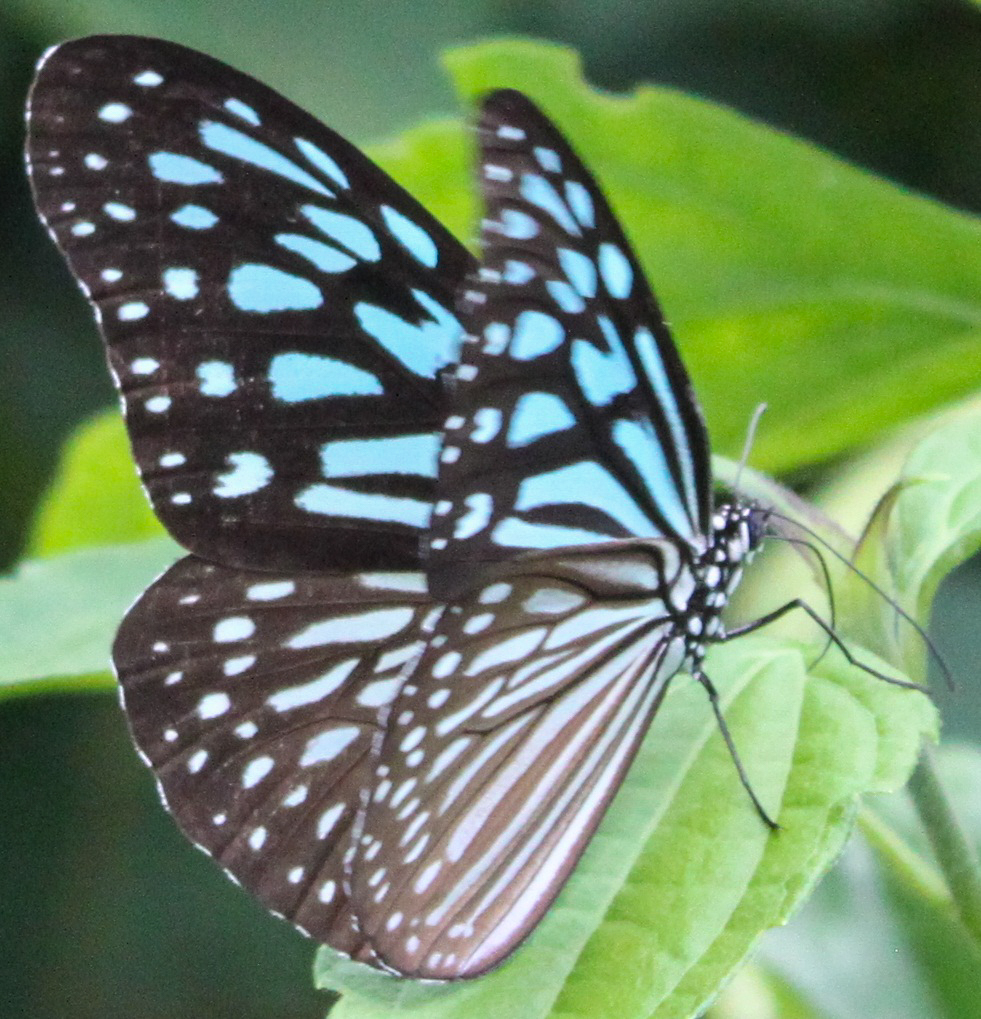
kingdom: Animalia
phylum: Arthropoda
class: Insecta
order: Lepidoptera
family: Nymphalidae
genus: Ideopsis
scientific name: Ideopsis vulgaris
